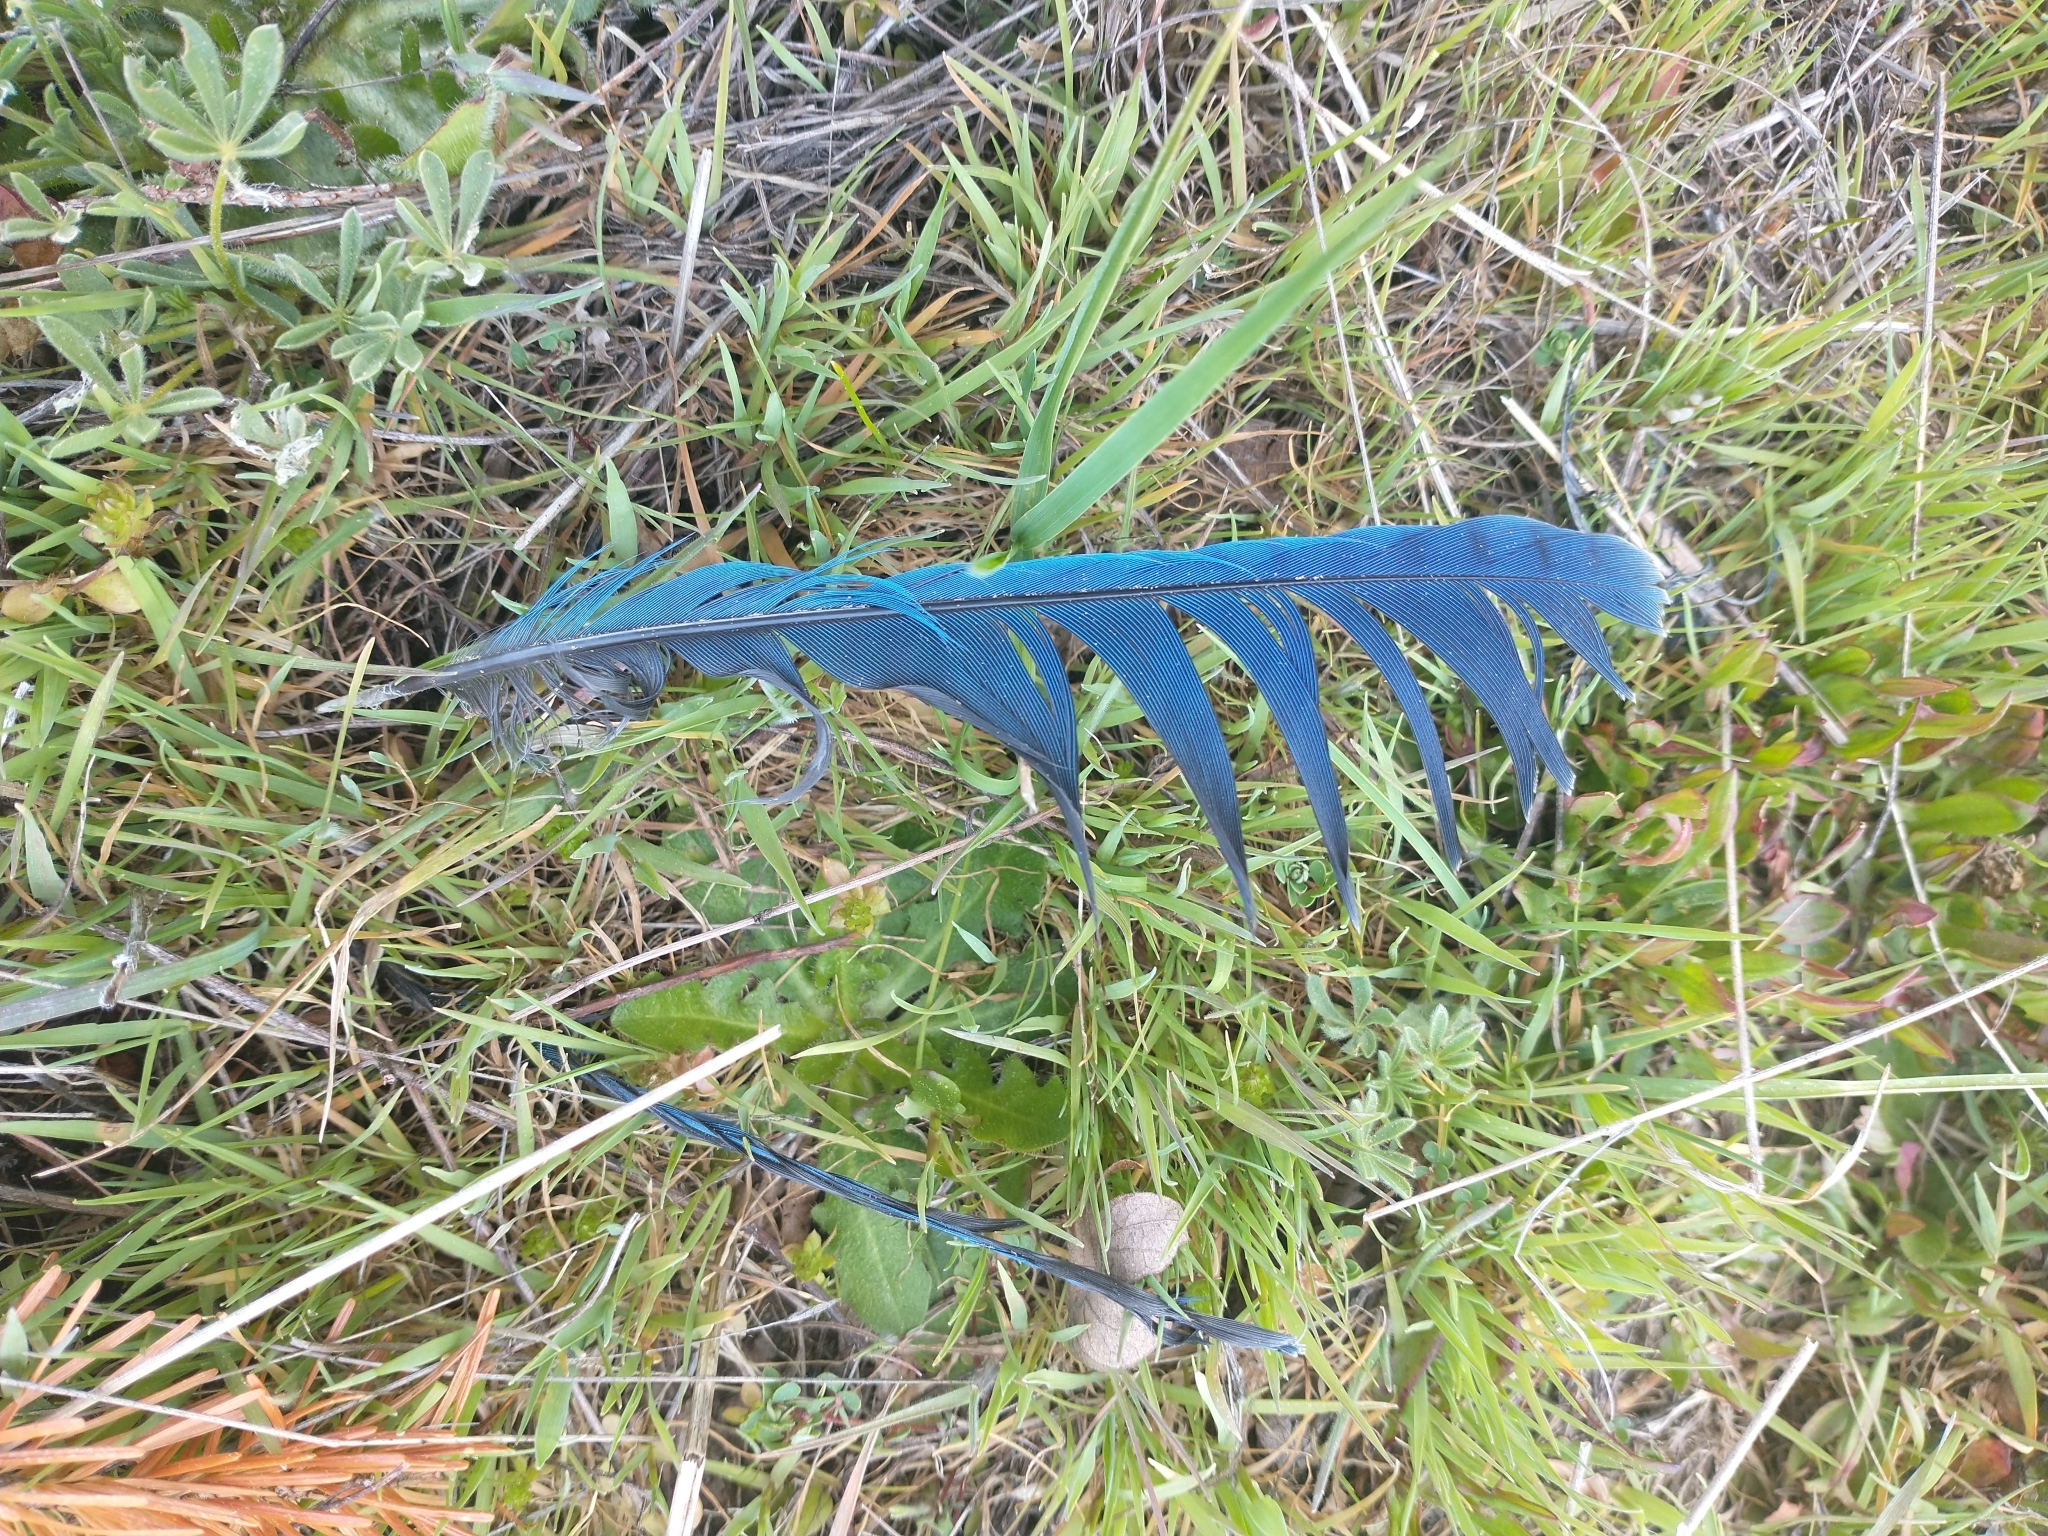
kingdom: Animalia
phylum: Chordata
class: Aves
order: Passeriformes
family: Corvidae
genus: Cyanocitta
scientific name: Cyanocitta stelleri
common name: Steller's jay
